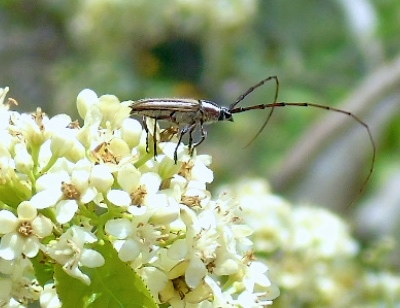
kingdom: Animalia
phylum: Arthropoda
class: Insecta
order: Coleoptera
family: Cerambycidae
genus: Sphaenothecus
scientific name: Sphaenothecus maccartyi
